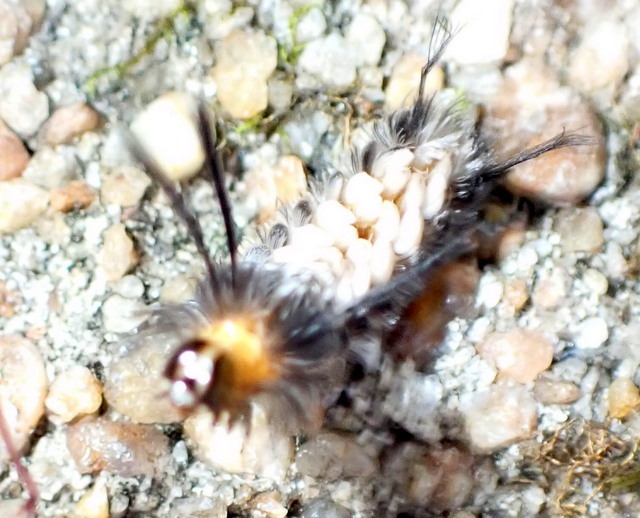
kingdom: Animalia
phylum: Arthropoda
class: Insecta
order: Lepidoptera
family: Erebidae
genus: Syntomeida
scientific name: Syntomeida ipomoeae
